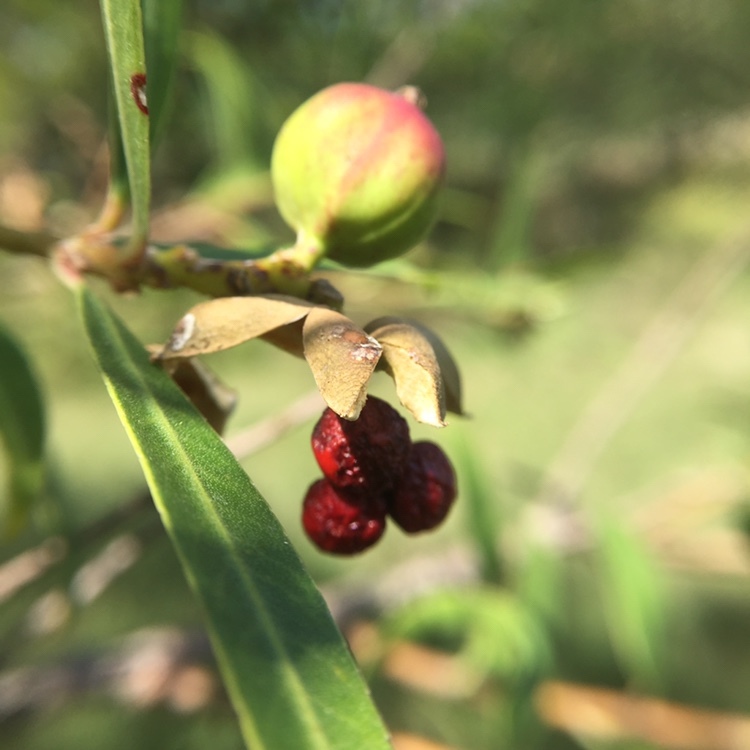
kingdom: Plantae
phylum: Tracheophyta
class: Magnoliopsida
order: Malpighiales
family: Euphorbiaceae
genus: Sapium
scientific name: Sapium haematospermum
